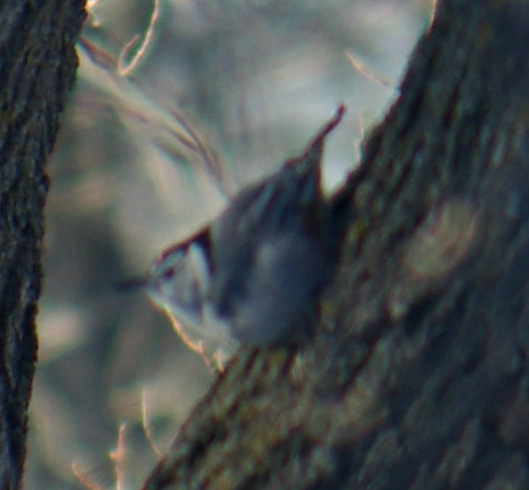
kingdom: Animalia
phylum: Chordata
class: Aves
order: Passeriformes
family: Sittidae
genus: Sitta
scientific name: Sitta carolinensis
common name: White-breasted nuthatch
